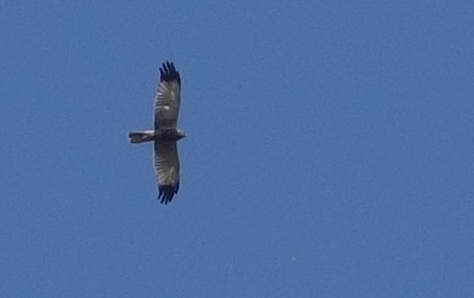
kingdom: Animalia
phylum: Chordata
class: Aves
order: Accipitriformes
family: Accipitridae
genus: Circus
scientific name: Circus aeruginosus
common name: Western marsh harrier
